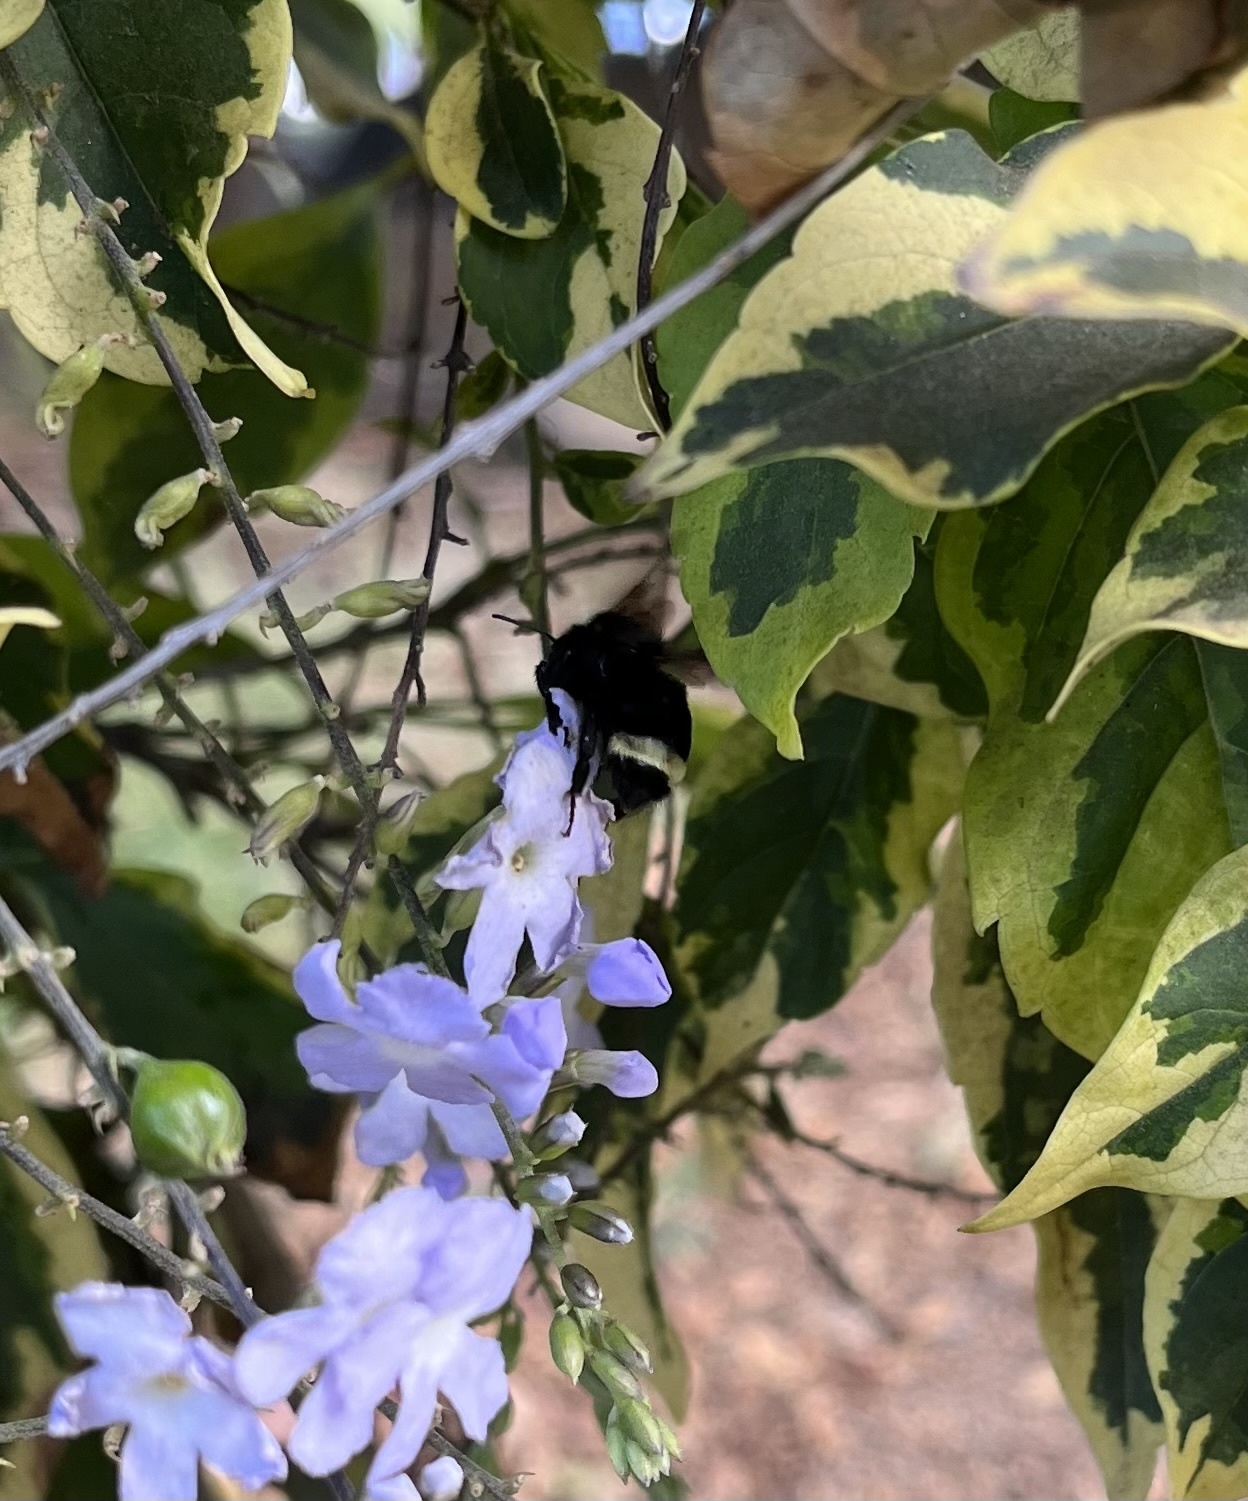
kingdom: Animalia
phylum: Arthropoda
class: Insecta
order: Hymenoptera
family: Apidae
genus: Bombus
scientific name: Bombus vosnesenskii
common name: Vosnesensky bumble bee
